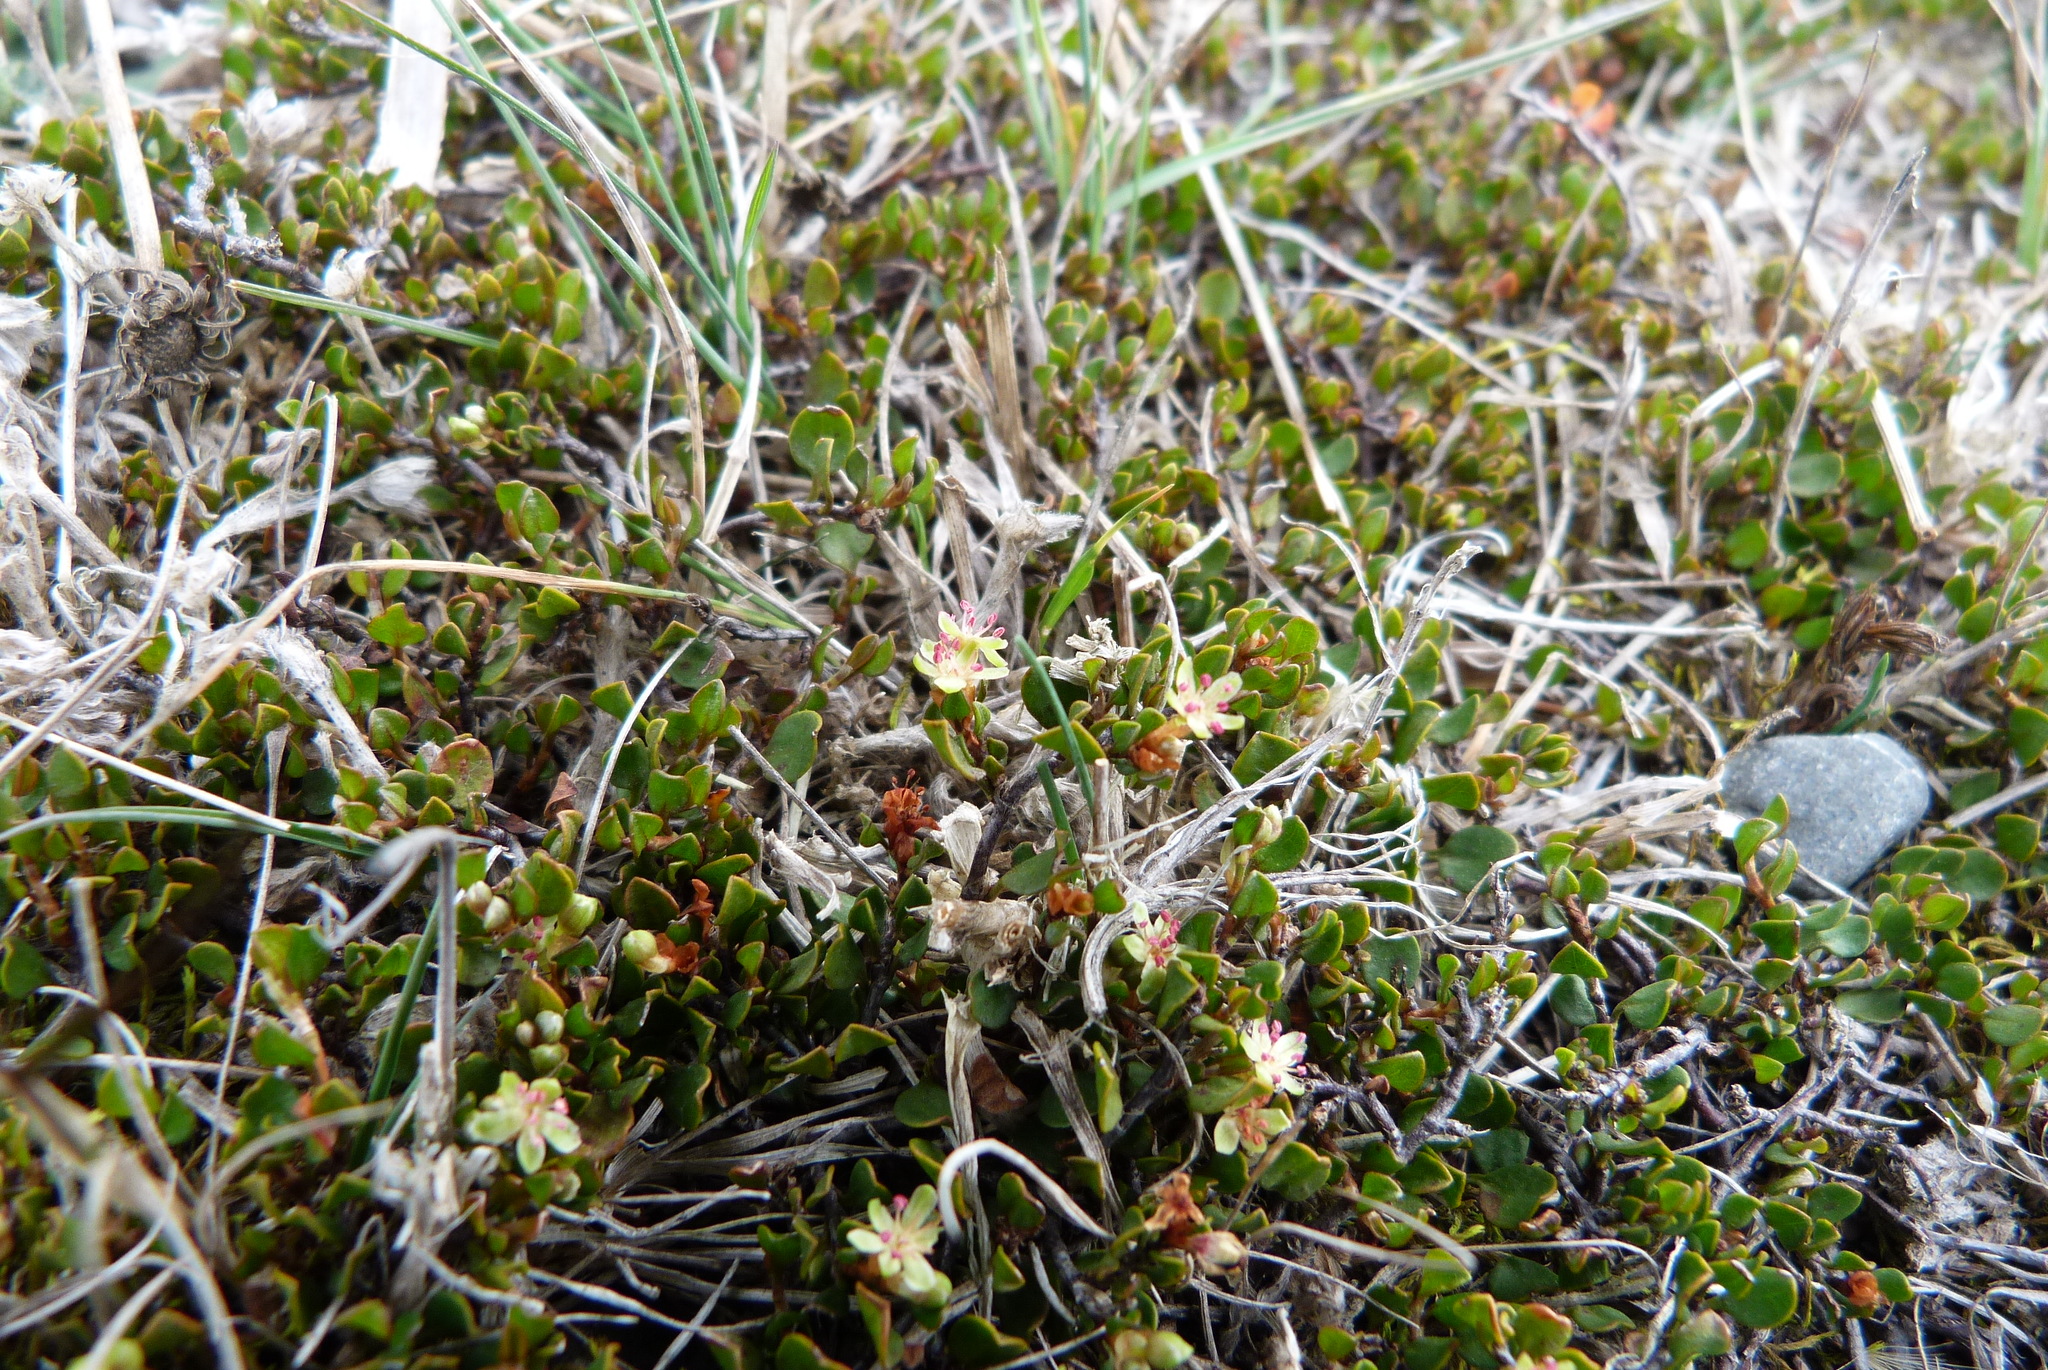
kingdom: Plantae
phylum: Tracheophyta
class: Magnoliopsida
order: Caryophyllales
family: Polygonaceae
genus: Muehlenbeckia
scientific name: Muehlenbeckia axillaris
